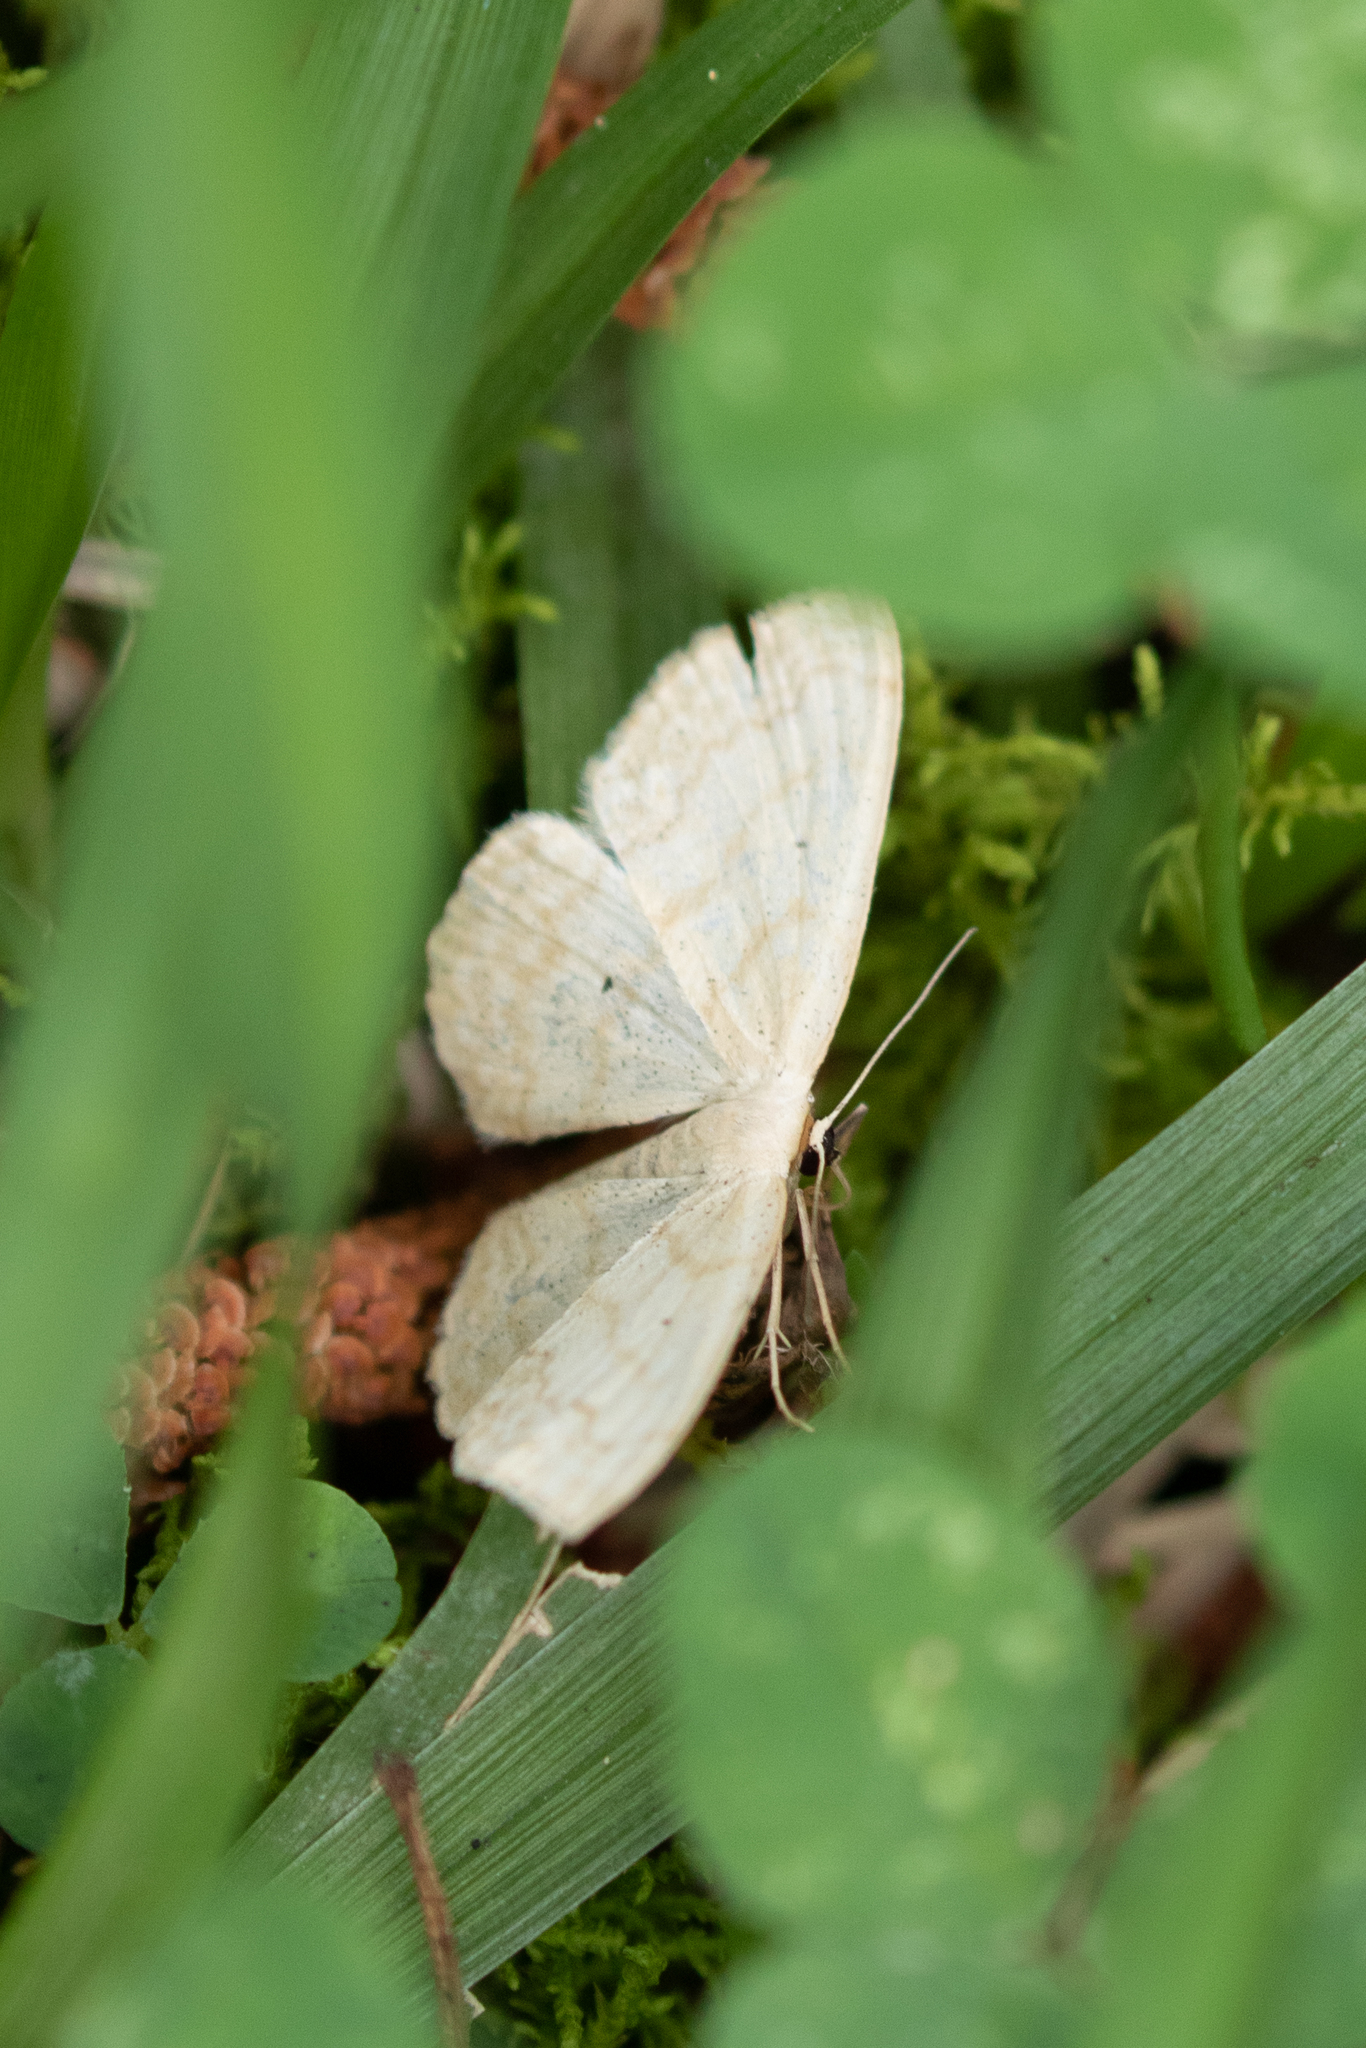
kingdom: Animalia
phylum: Arthropoda
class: Insecta
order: Lepidoptera
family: Geometridae
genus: Scopula
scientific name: Scopula limboundata
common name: Large lace border
